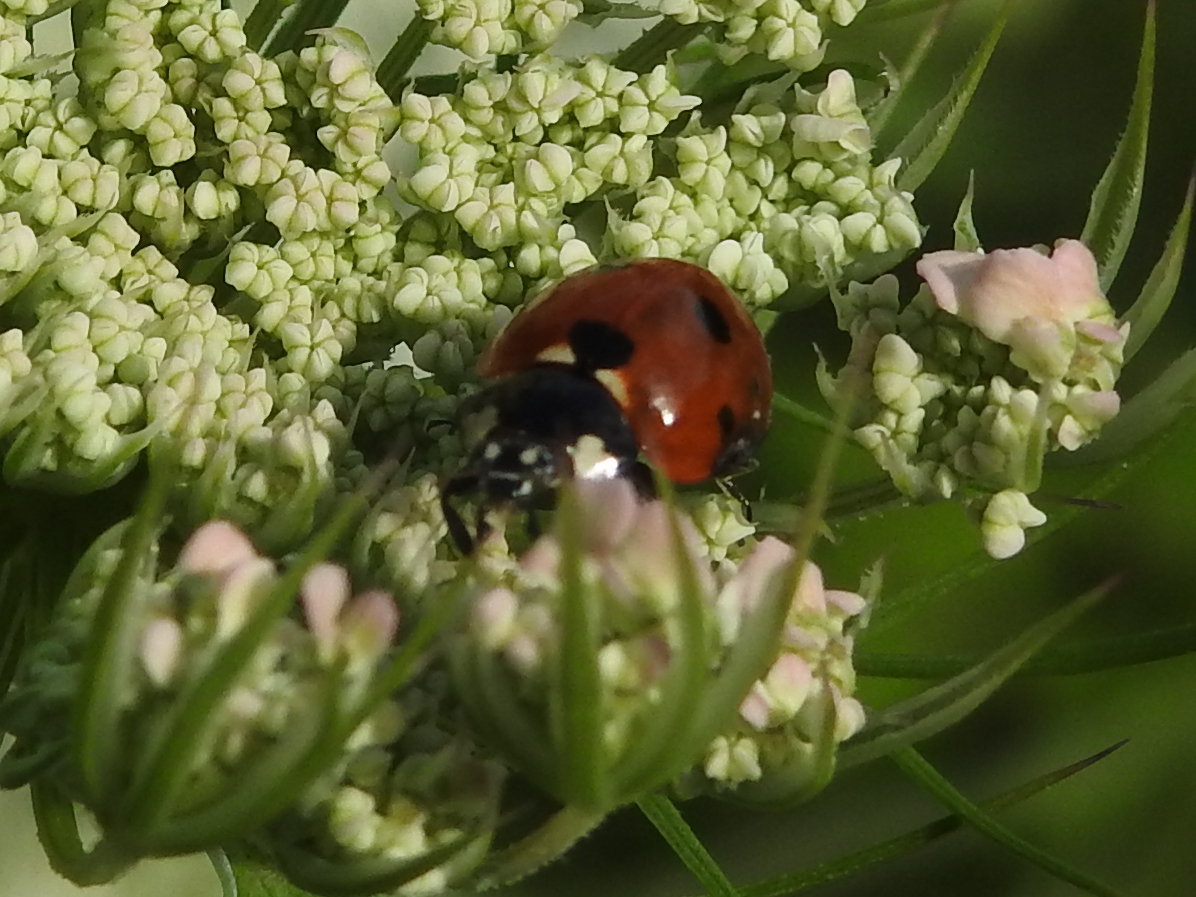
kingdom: Animalia
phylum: Arthropoda
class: Insecta
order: Coleoptera
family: Coccinellidae
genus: Coccinella
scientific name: Coccinella septempunctata
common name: Sevenspotted lady beetle
